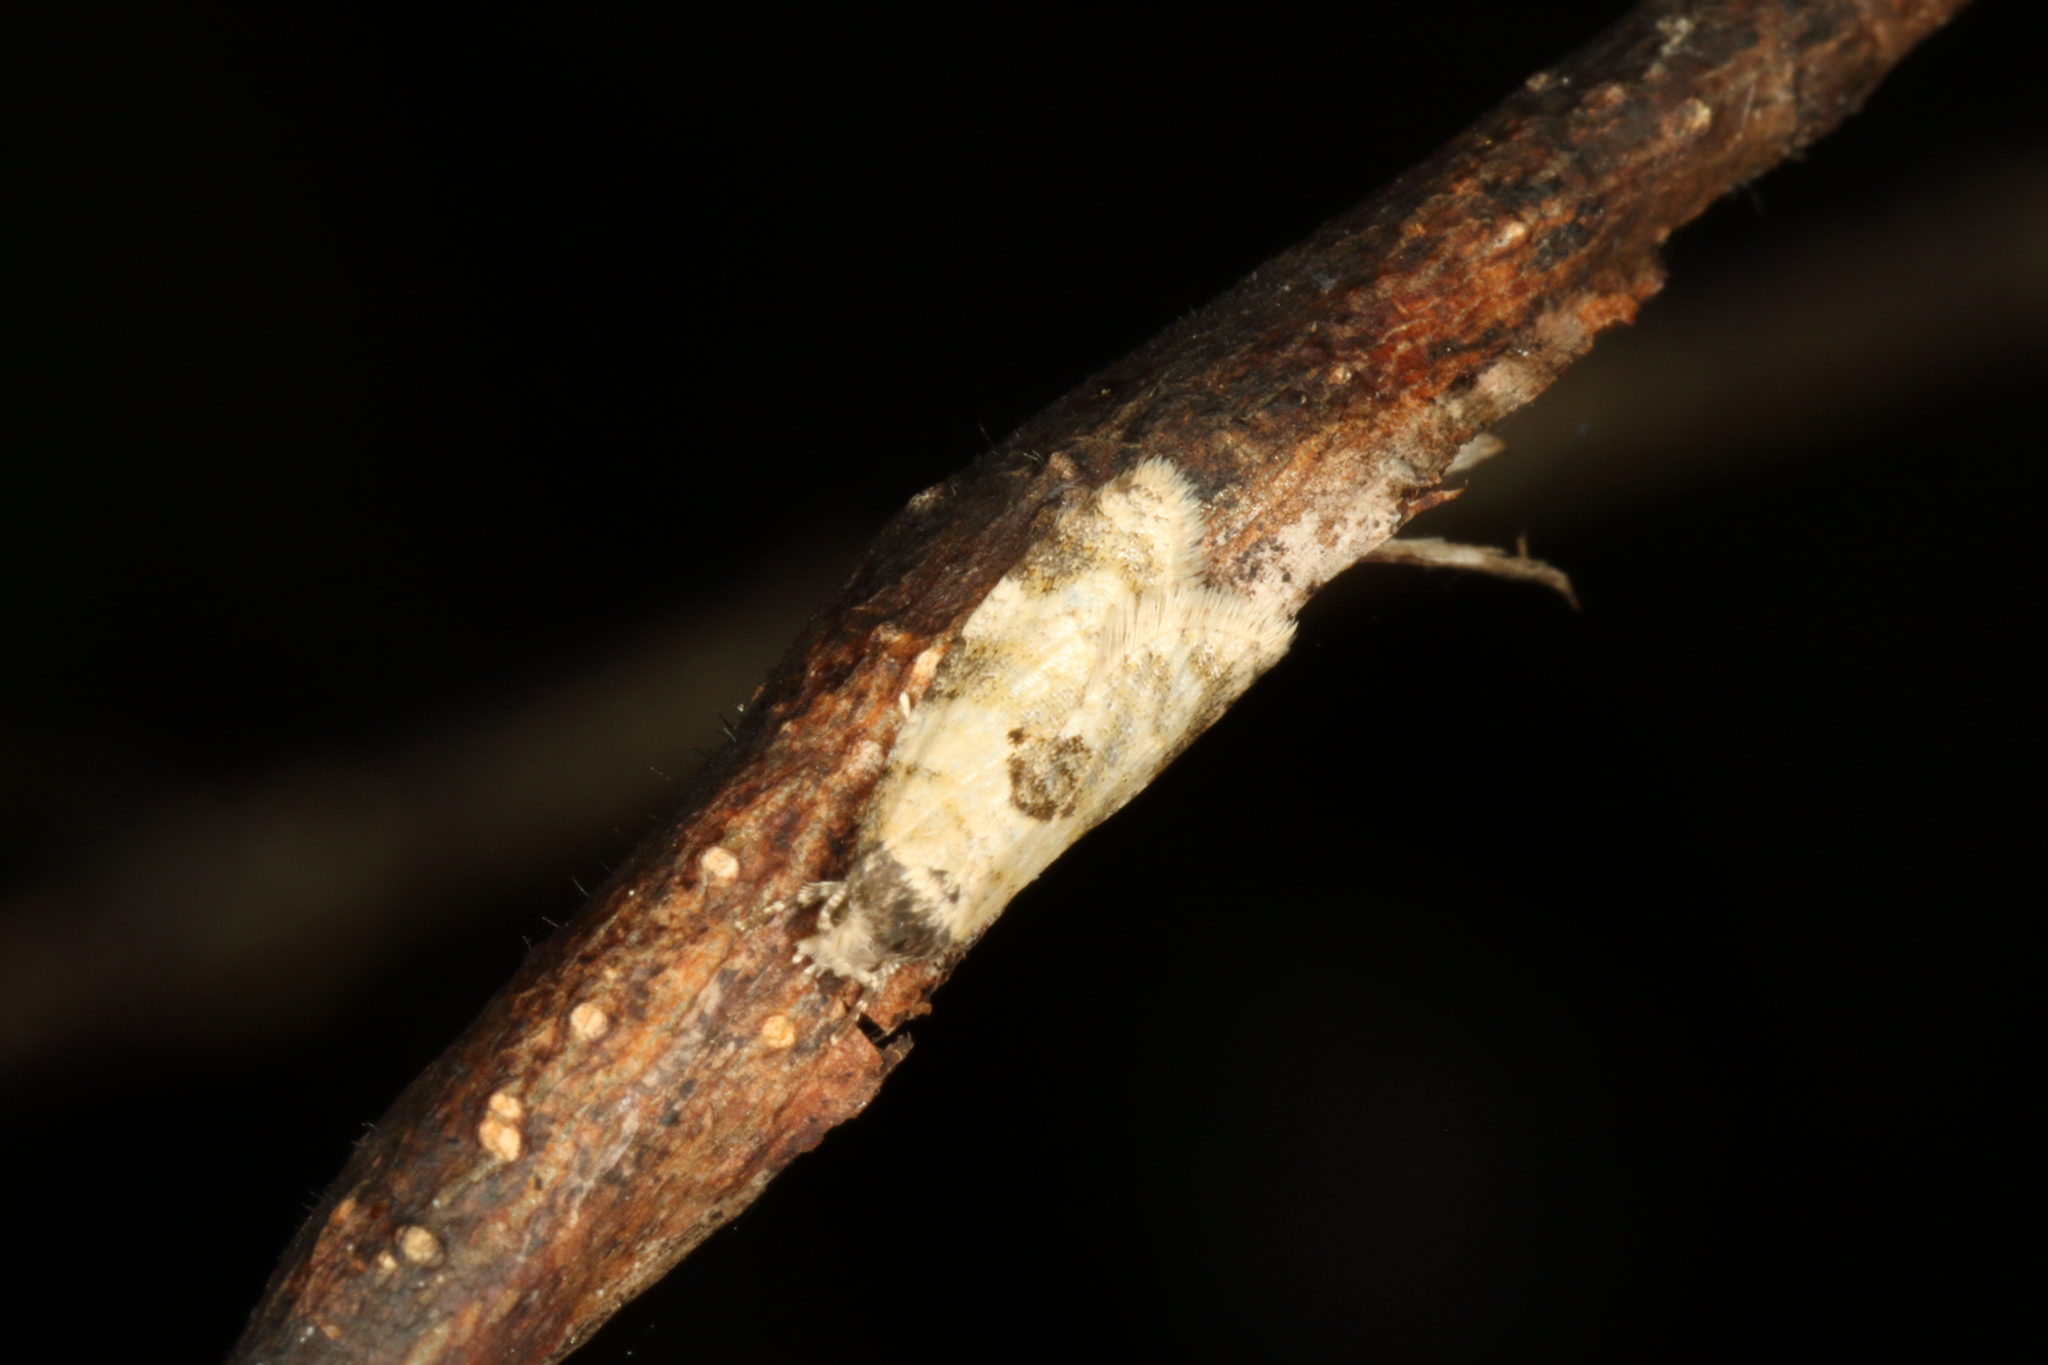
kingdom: Animalia
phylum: Arthropoda
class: Insecta
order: Lepidoptera
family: Tortricidae
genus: Dipterina
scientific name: Dipterina imbriferana
